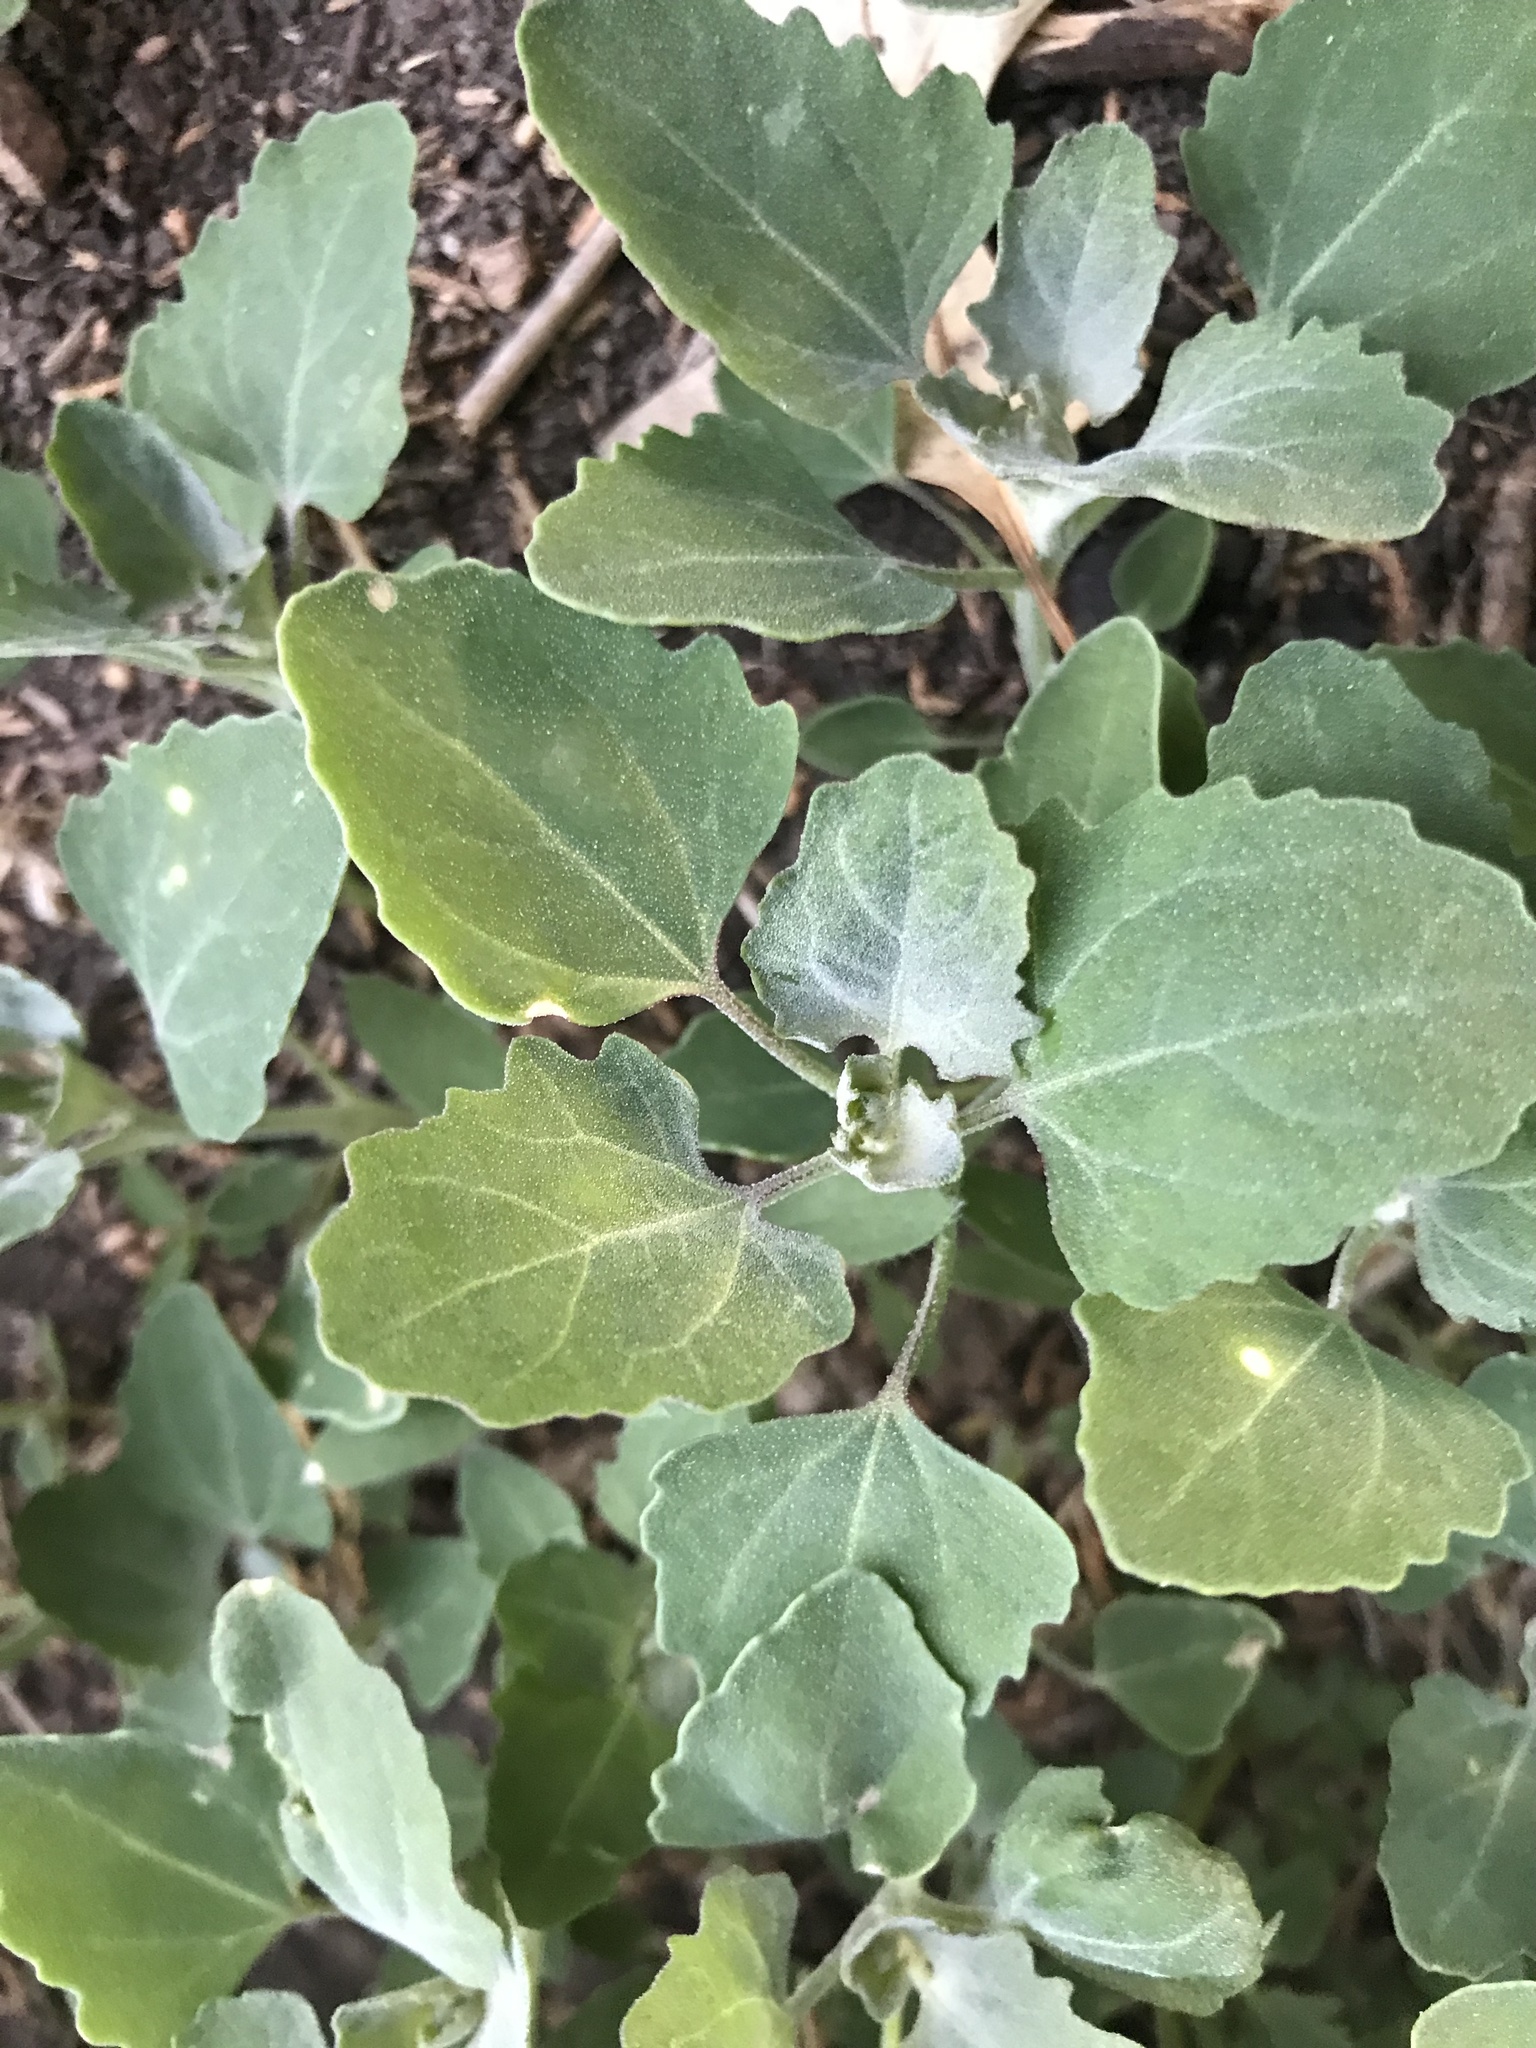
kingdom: Plantae
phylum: Tracheophyta
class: Magnoliopsida
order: Caryophyllales
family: Amaranthaceae
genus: Chenopodium
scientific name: Chenopodium album
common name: Fat-hen
